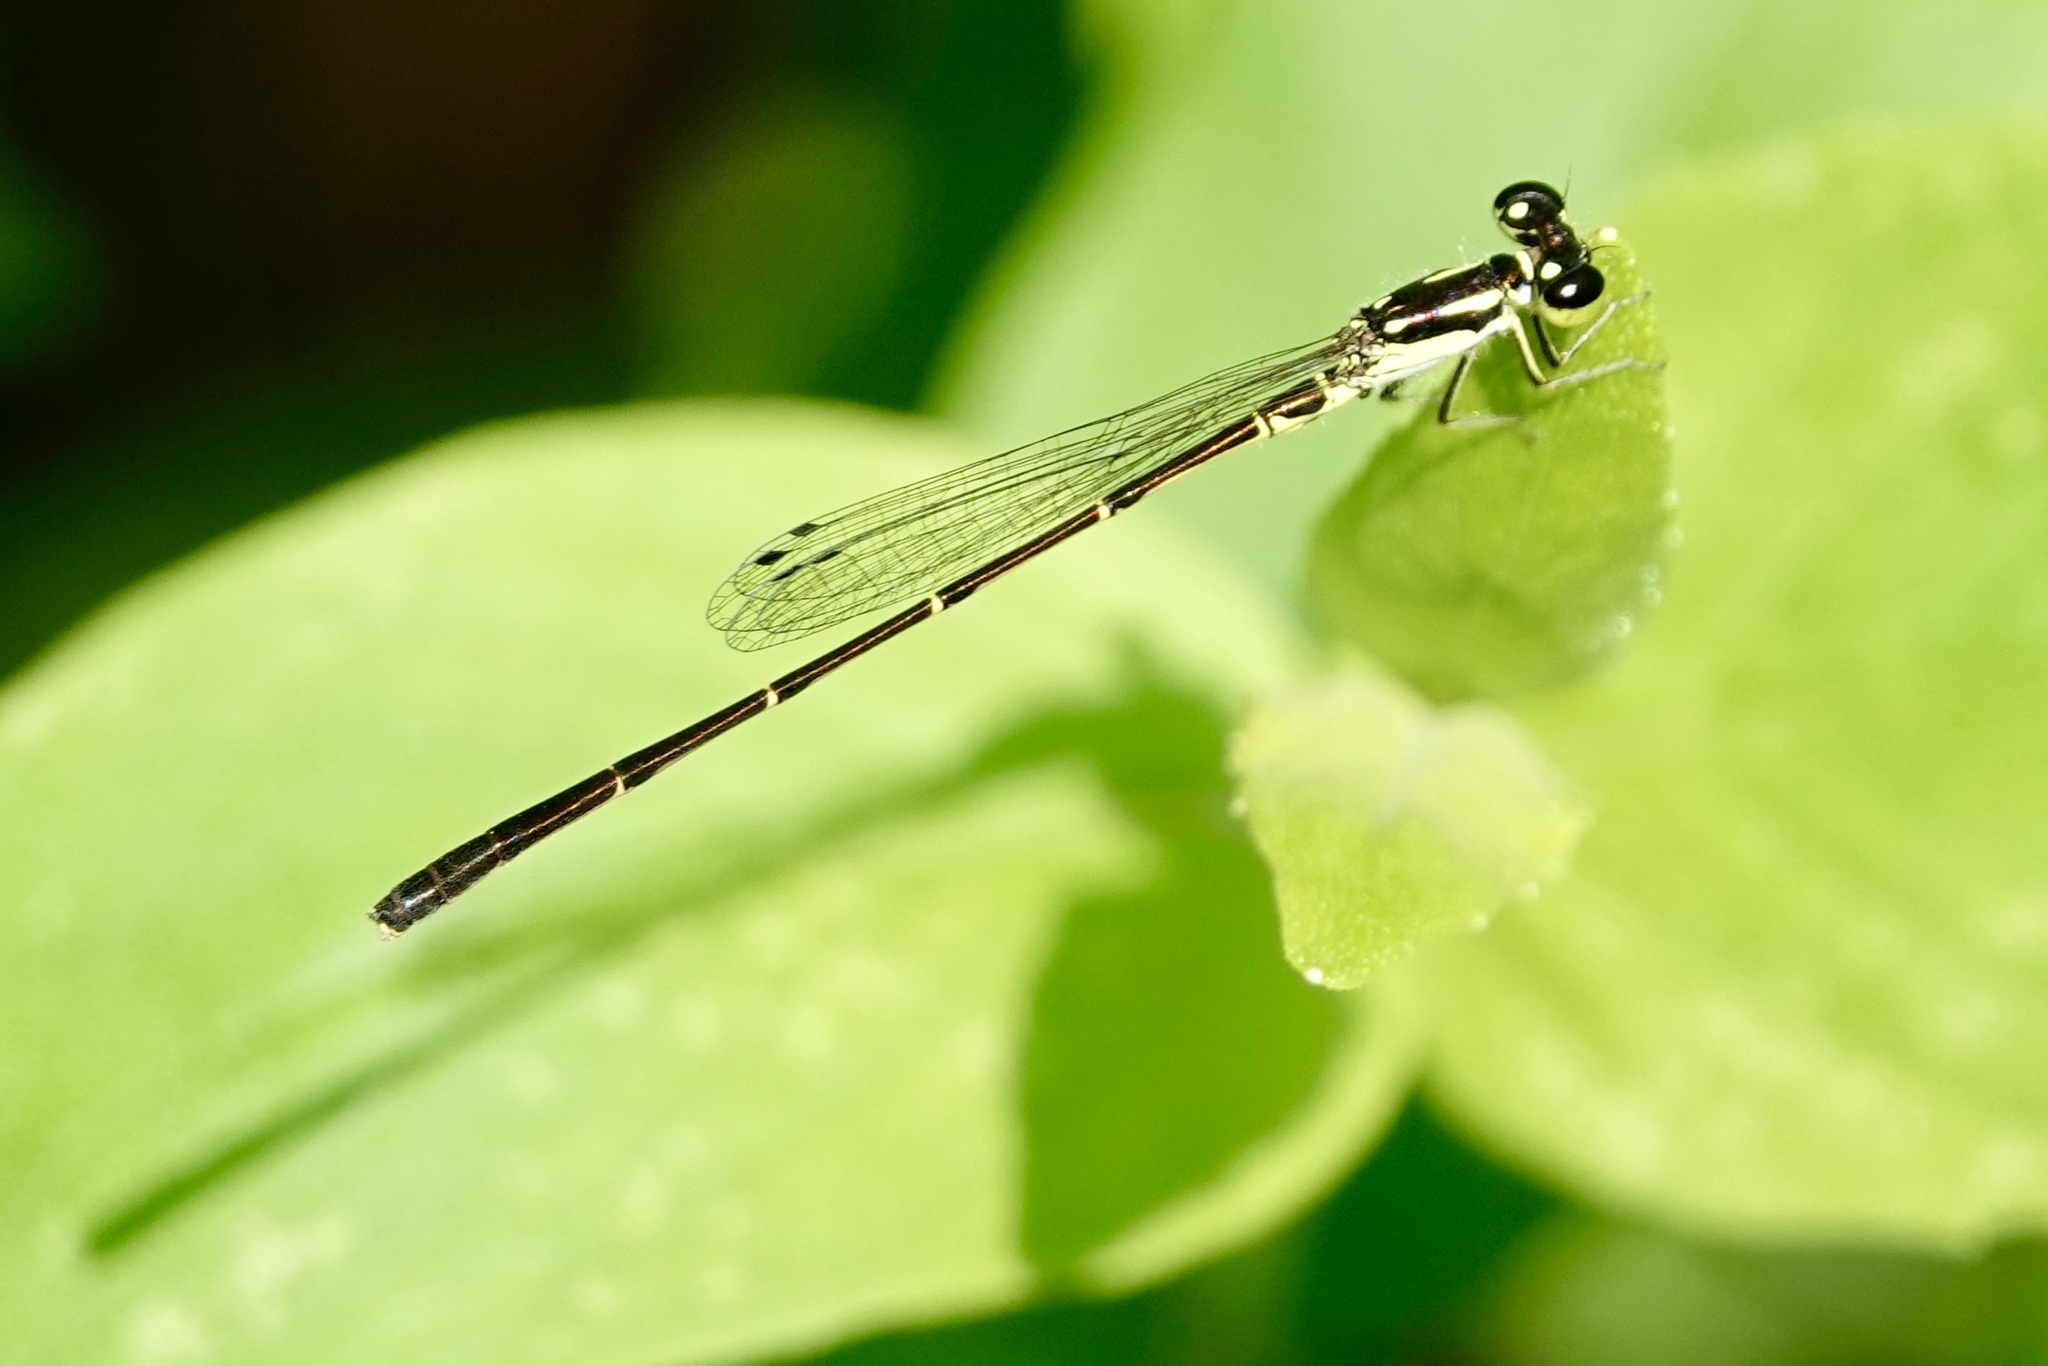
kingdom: Animalia
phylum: Arthropoda
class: Insecta
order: Odonata
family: Coenagrionidae
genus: Ischnura
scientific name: Ischnura posita
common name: Fragile forktail
